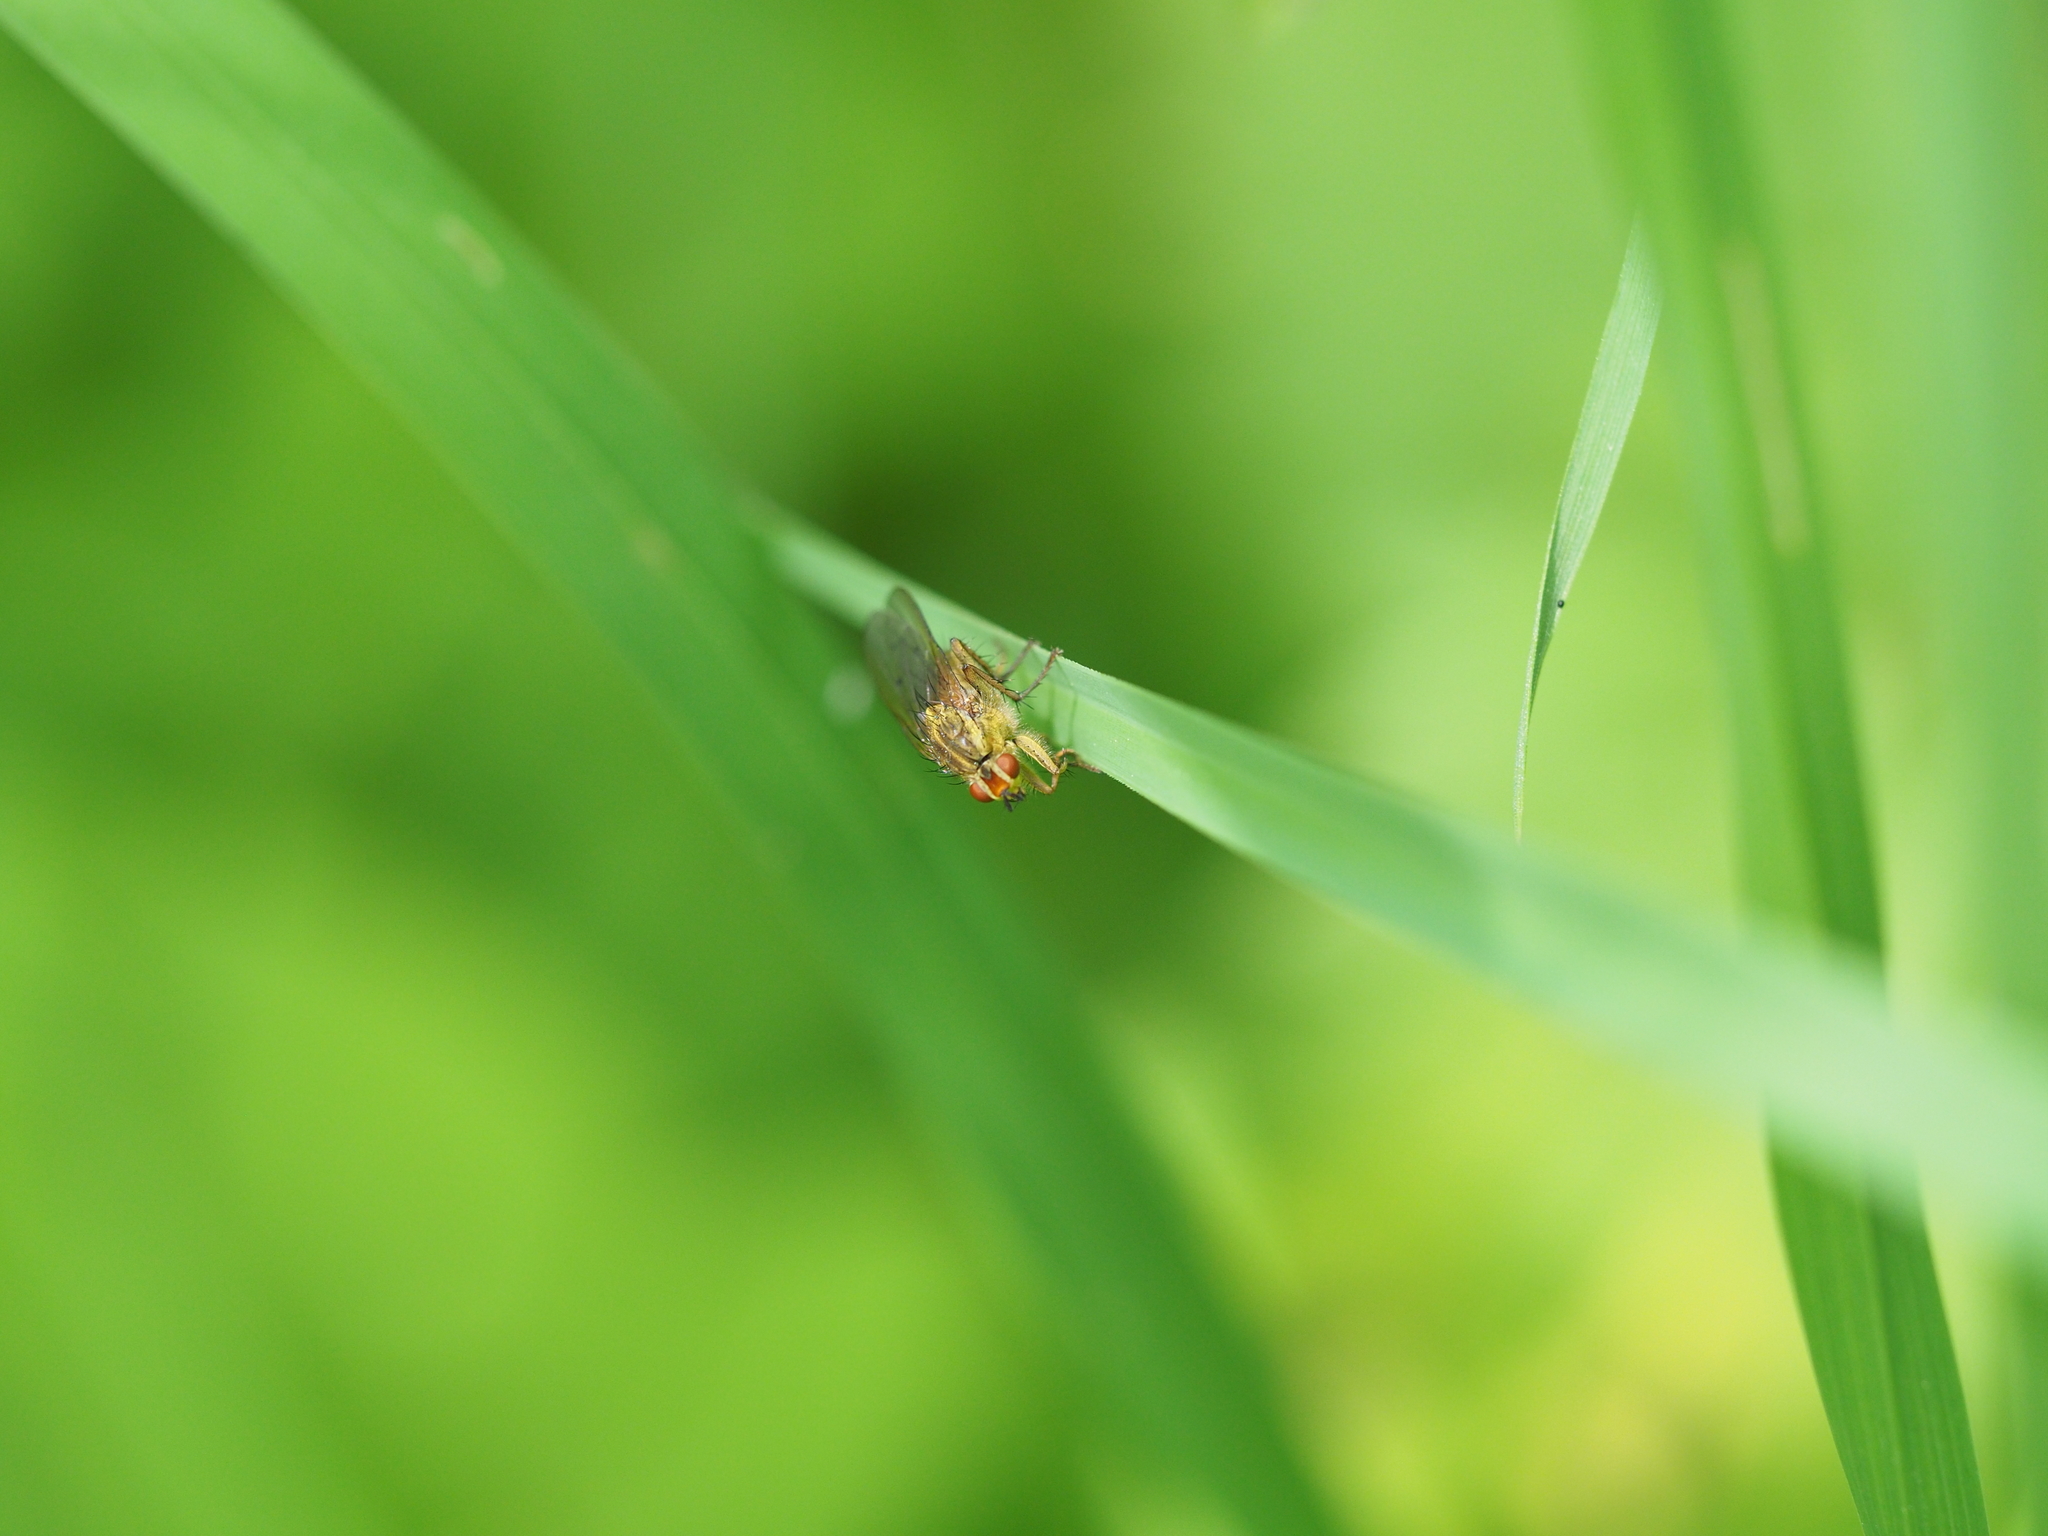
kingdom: Animalia
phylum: Arthropoda
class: Insecta
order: Diptera
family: Scathophagidae
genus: Scathophaga
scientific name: Scathophaga stercoraria
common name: Yellow dung fly
